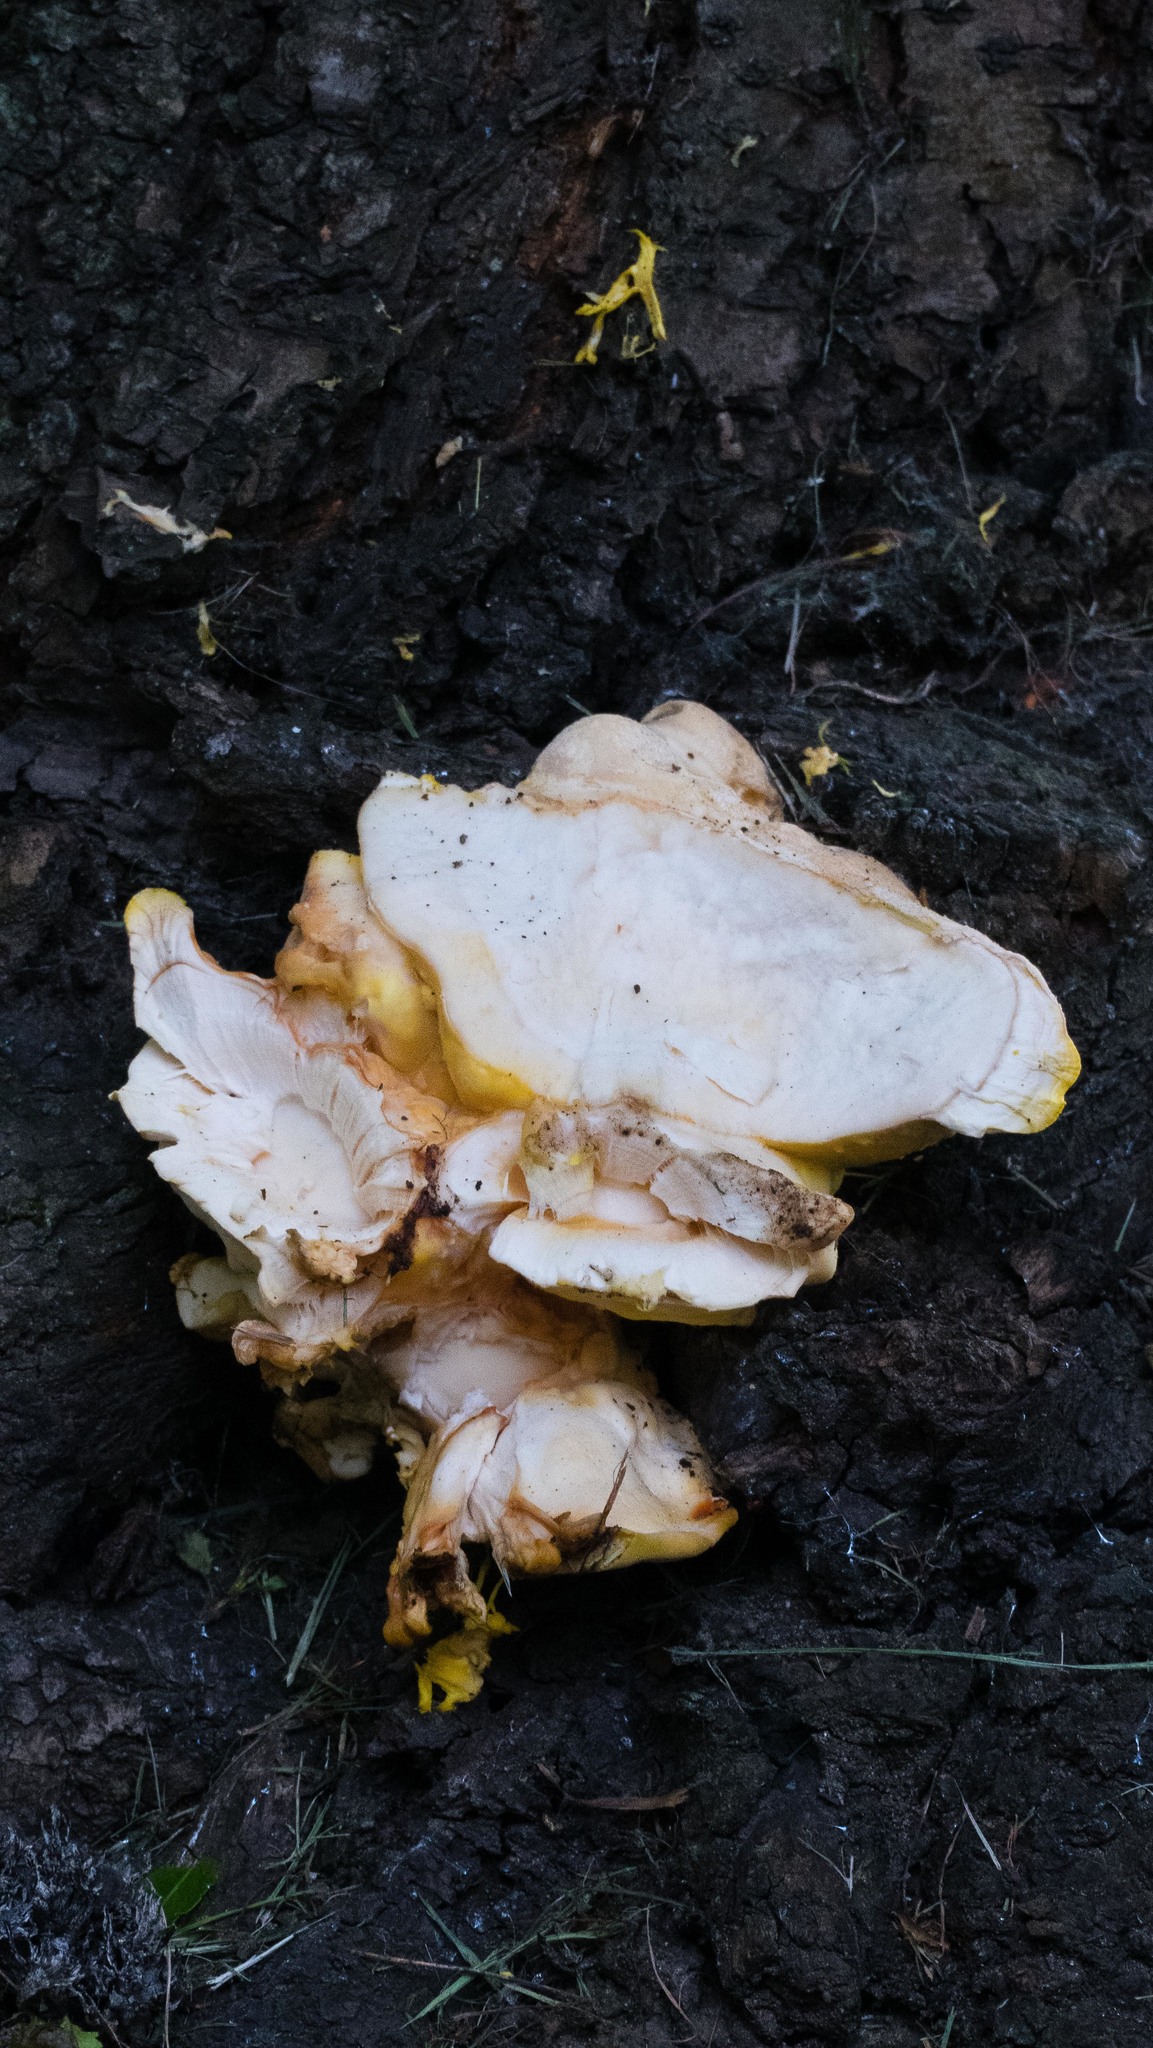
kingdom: Fungi
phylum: Basidiomycota
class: Agaricomycetes
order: Polyporales
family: Laetiporaceae
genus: Laetiporus
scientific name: Laetiporus sulphureus
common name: Chicken of the woods
